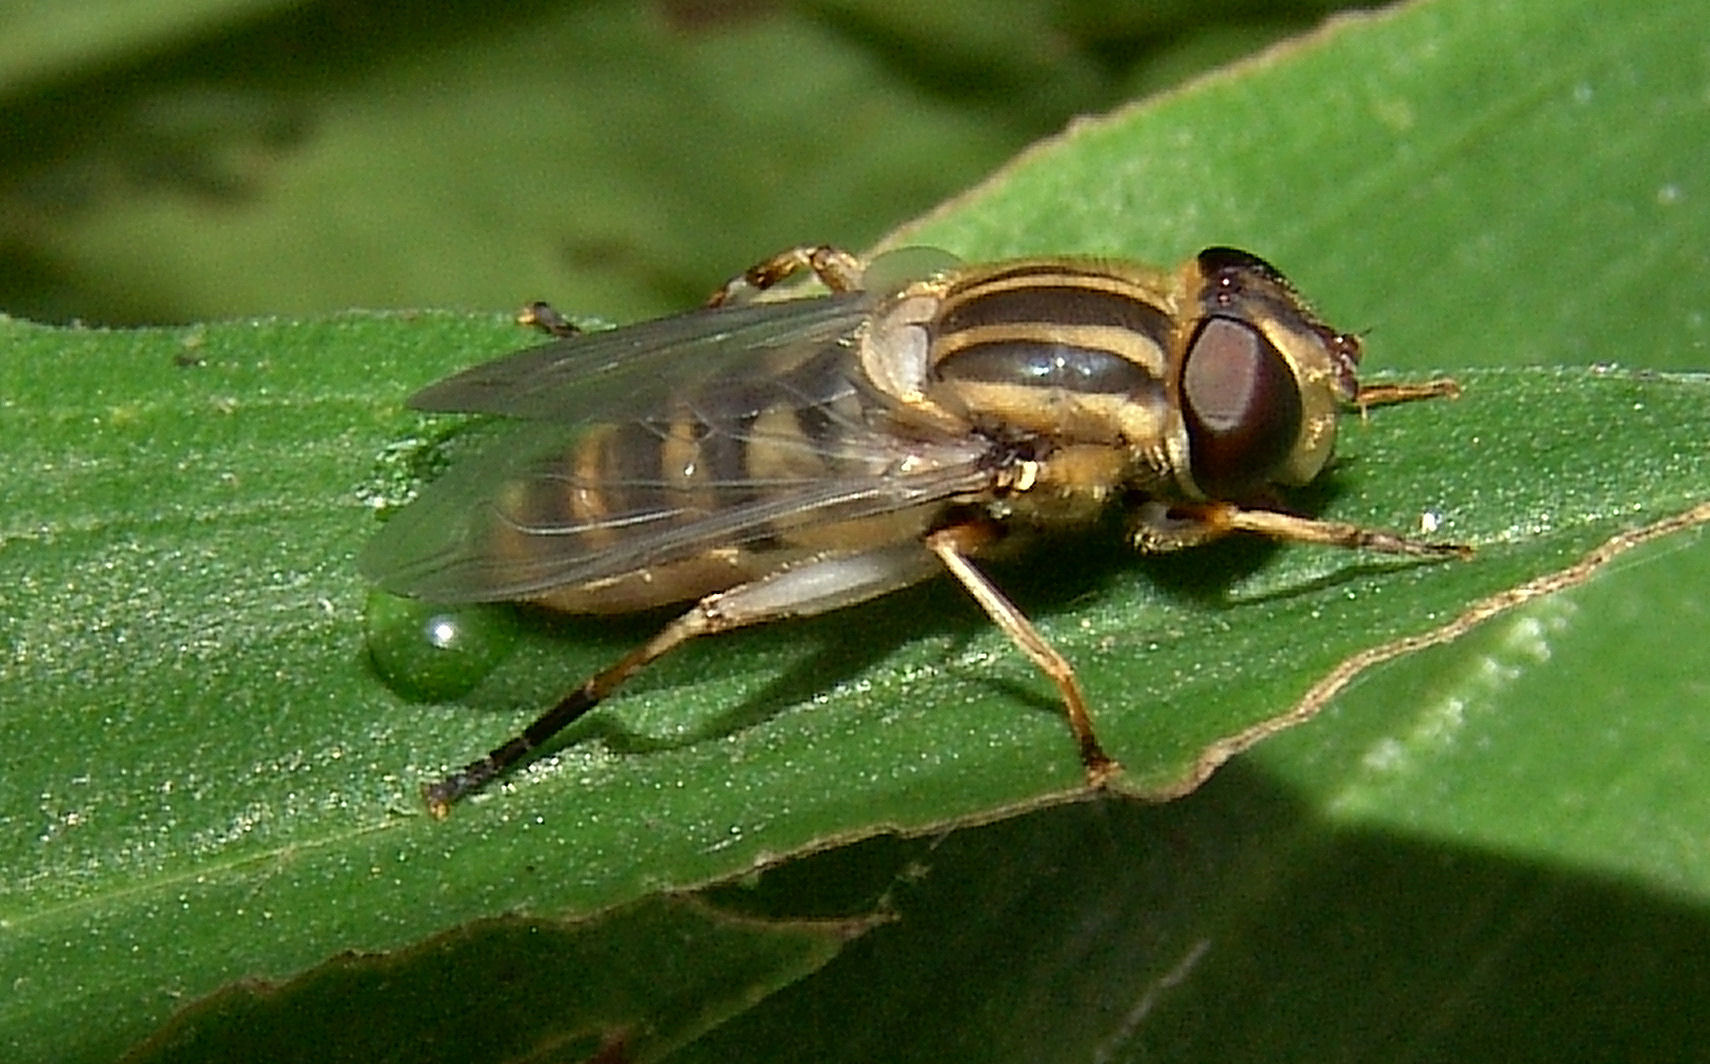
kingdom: Animalia
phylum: Arthropoda
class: Insecta
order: Diptera
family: Syrphidae
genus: Helophilus
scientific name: Helophilus fasciatus
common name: Narrow-headed marsh fly
